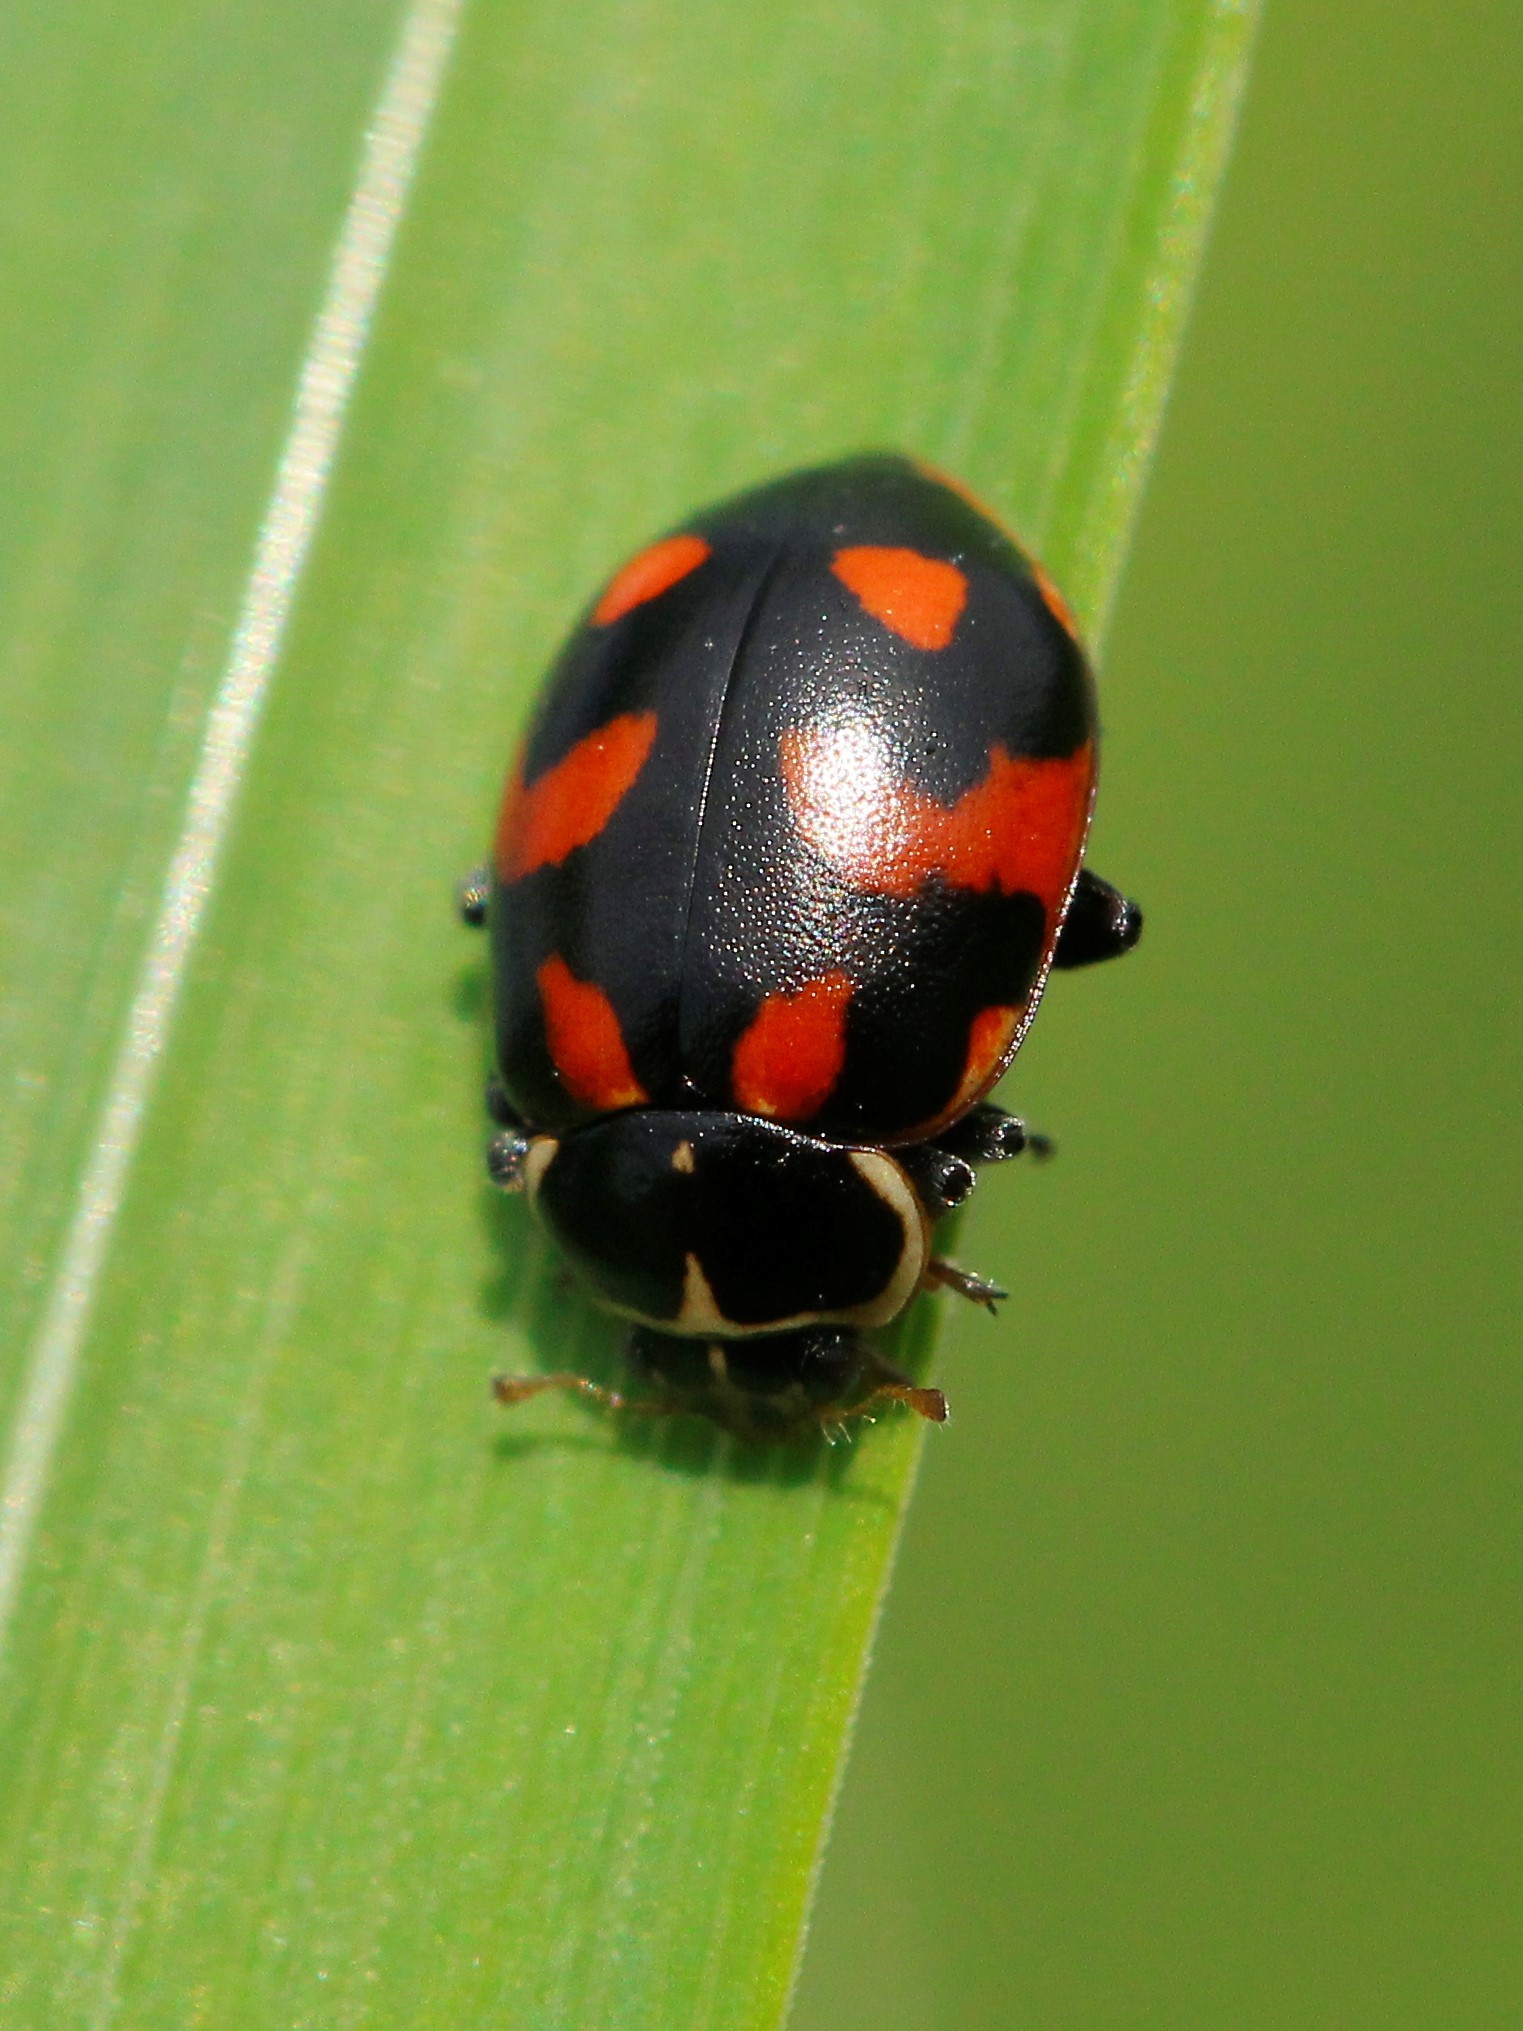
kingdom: Animalia
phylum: Arthropoda
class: Insecta
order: Coleoptera
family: Coccinellidae
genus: Hippodamia
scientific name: Hippodamia arctica
